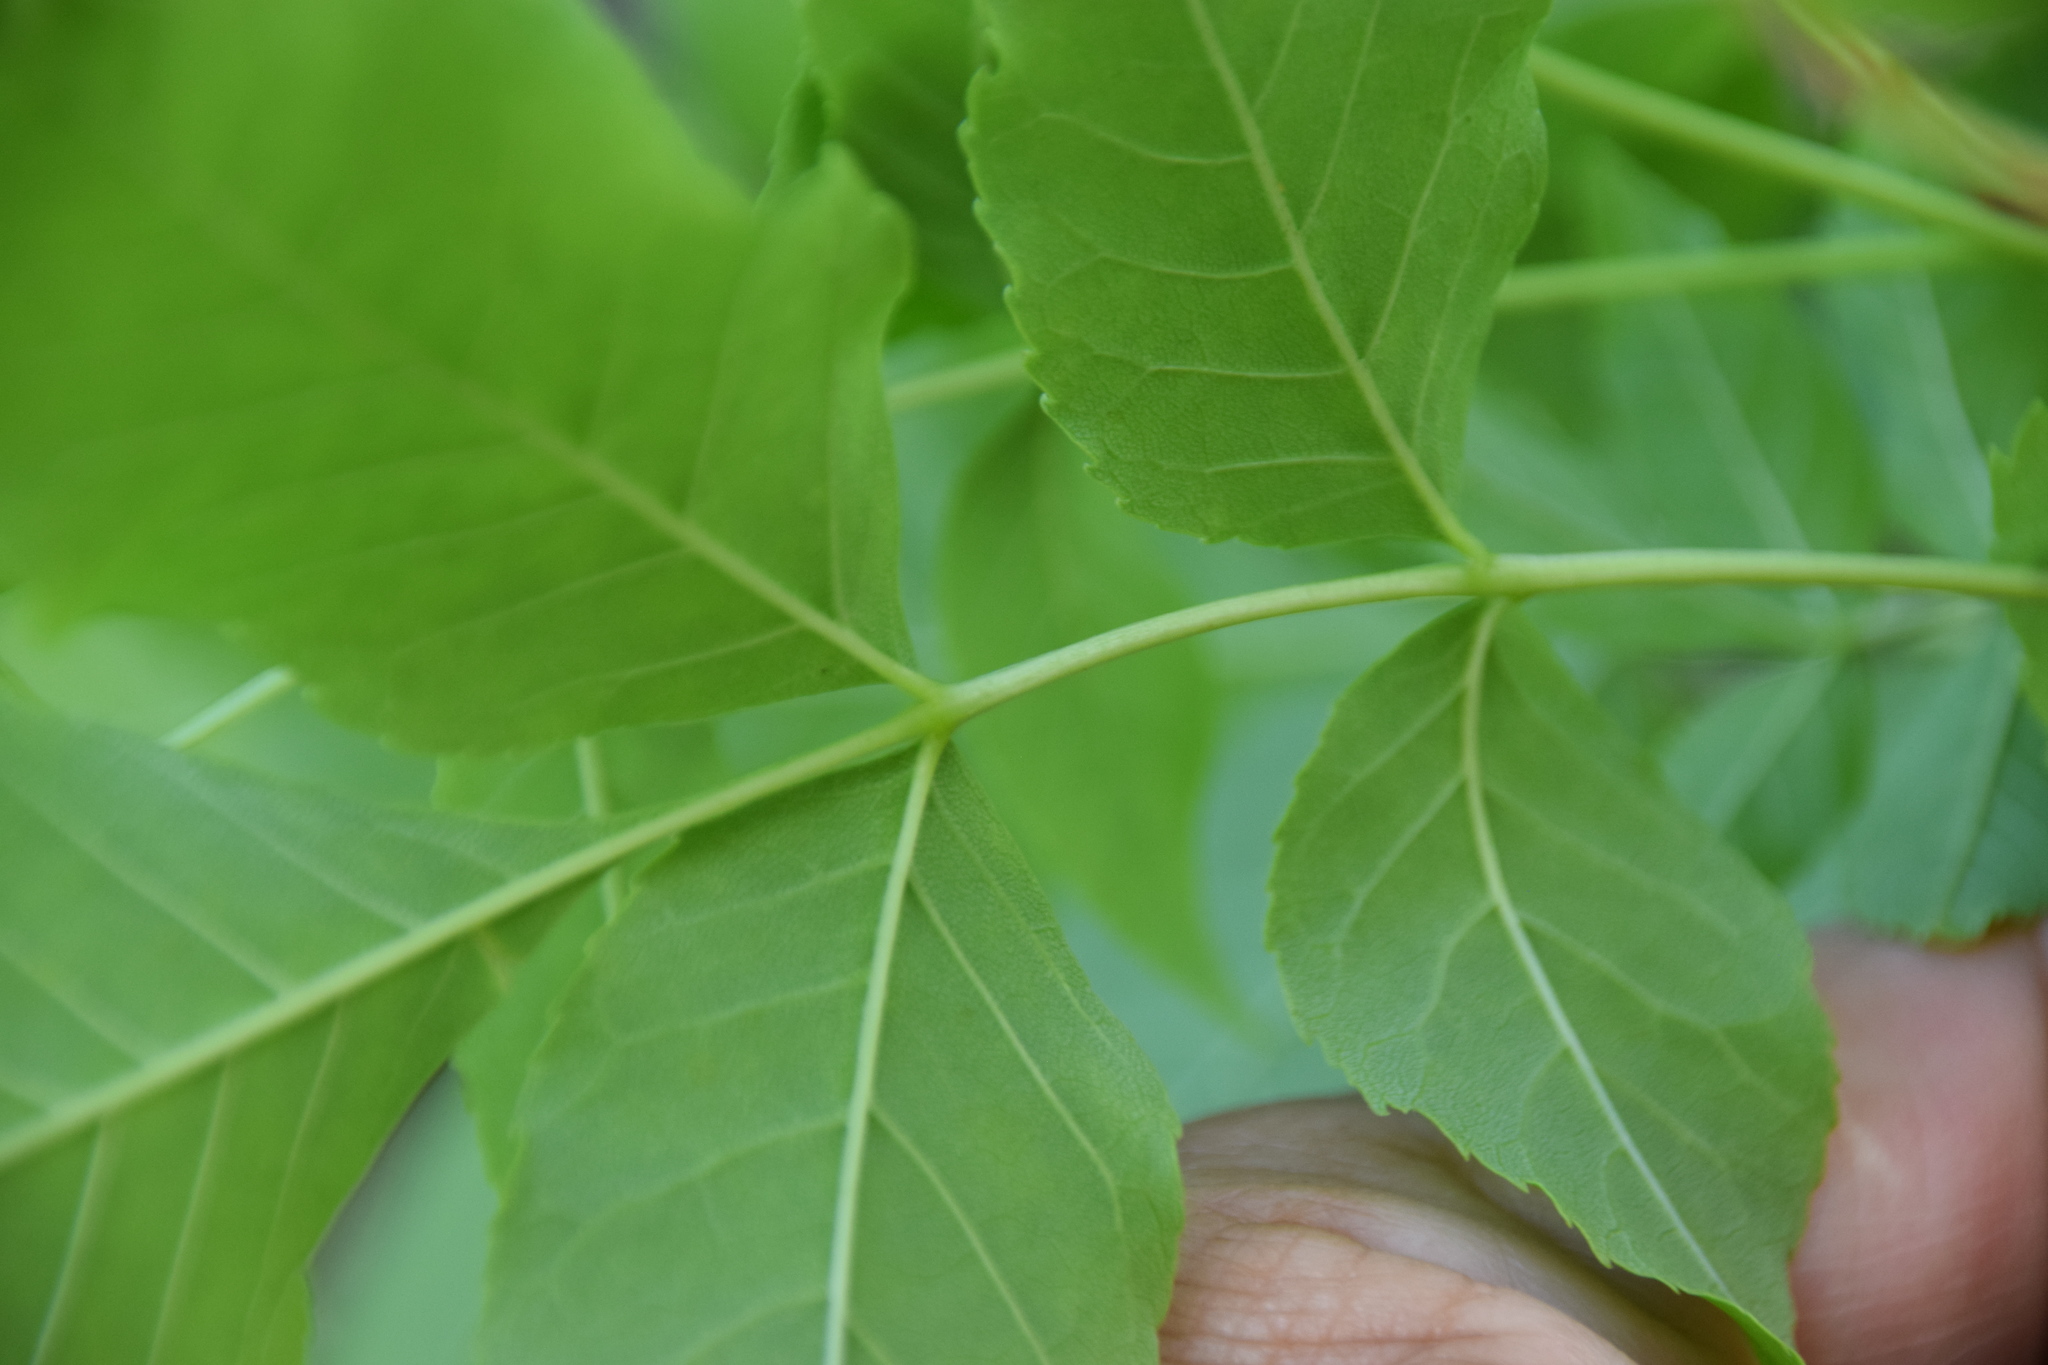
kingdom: Plantae
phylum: Tracheophyta
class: Magnoliopsida
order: Lamiales
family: Oleaceae
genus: Fraxinus
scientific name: Fraxinus pennsylvanica
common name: Green ash
